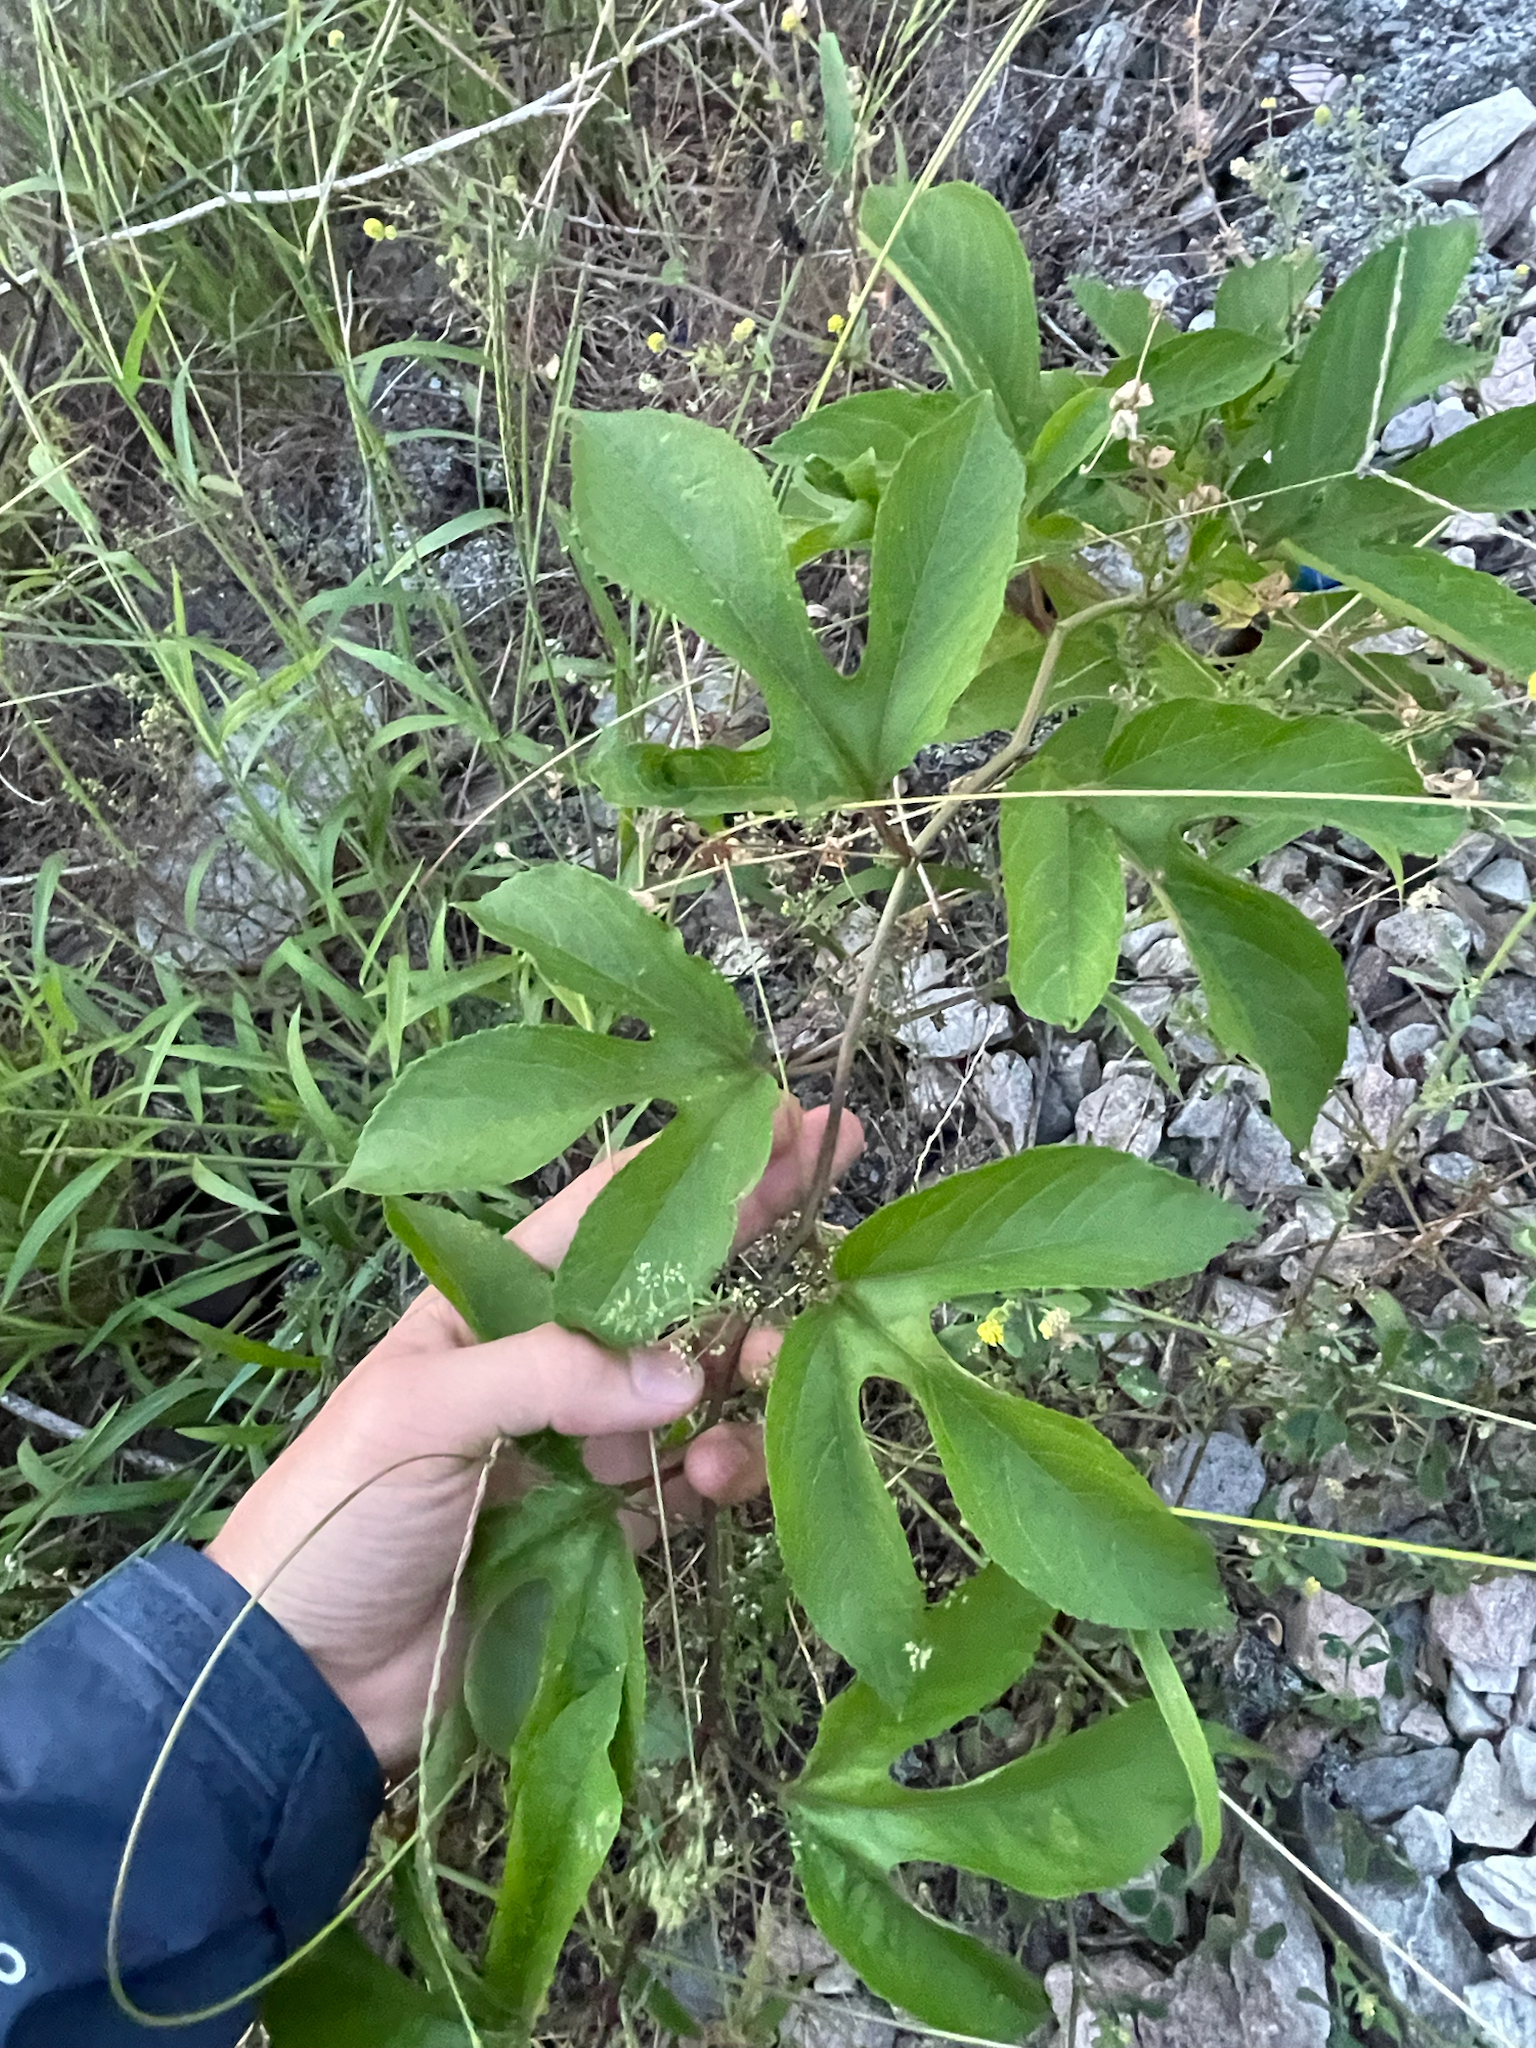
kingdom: Plantae
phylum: Tracheophyta
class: Magnoliopsida
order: Malpighiales
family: Passifloraceae
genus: Passiflora
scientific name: Passiflora incarnata
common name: Apricot-vine
